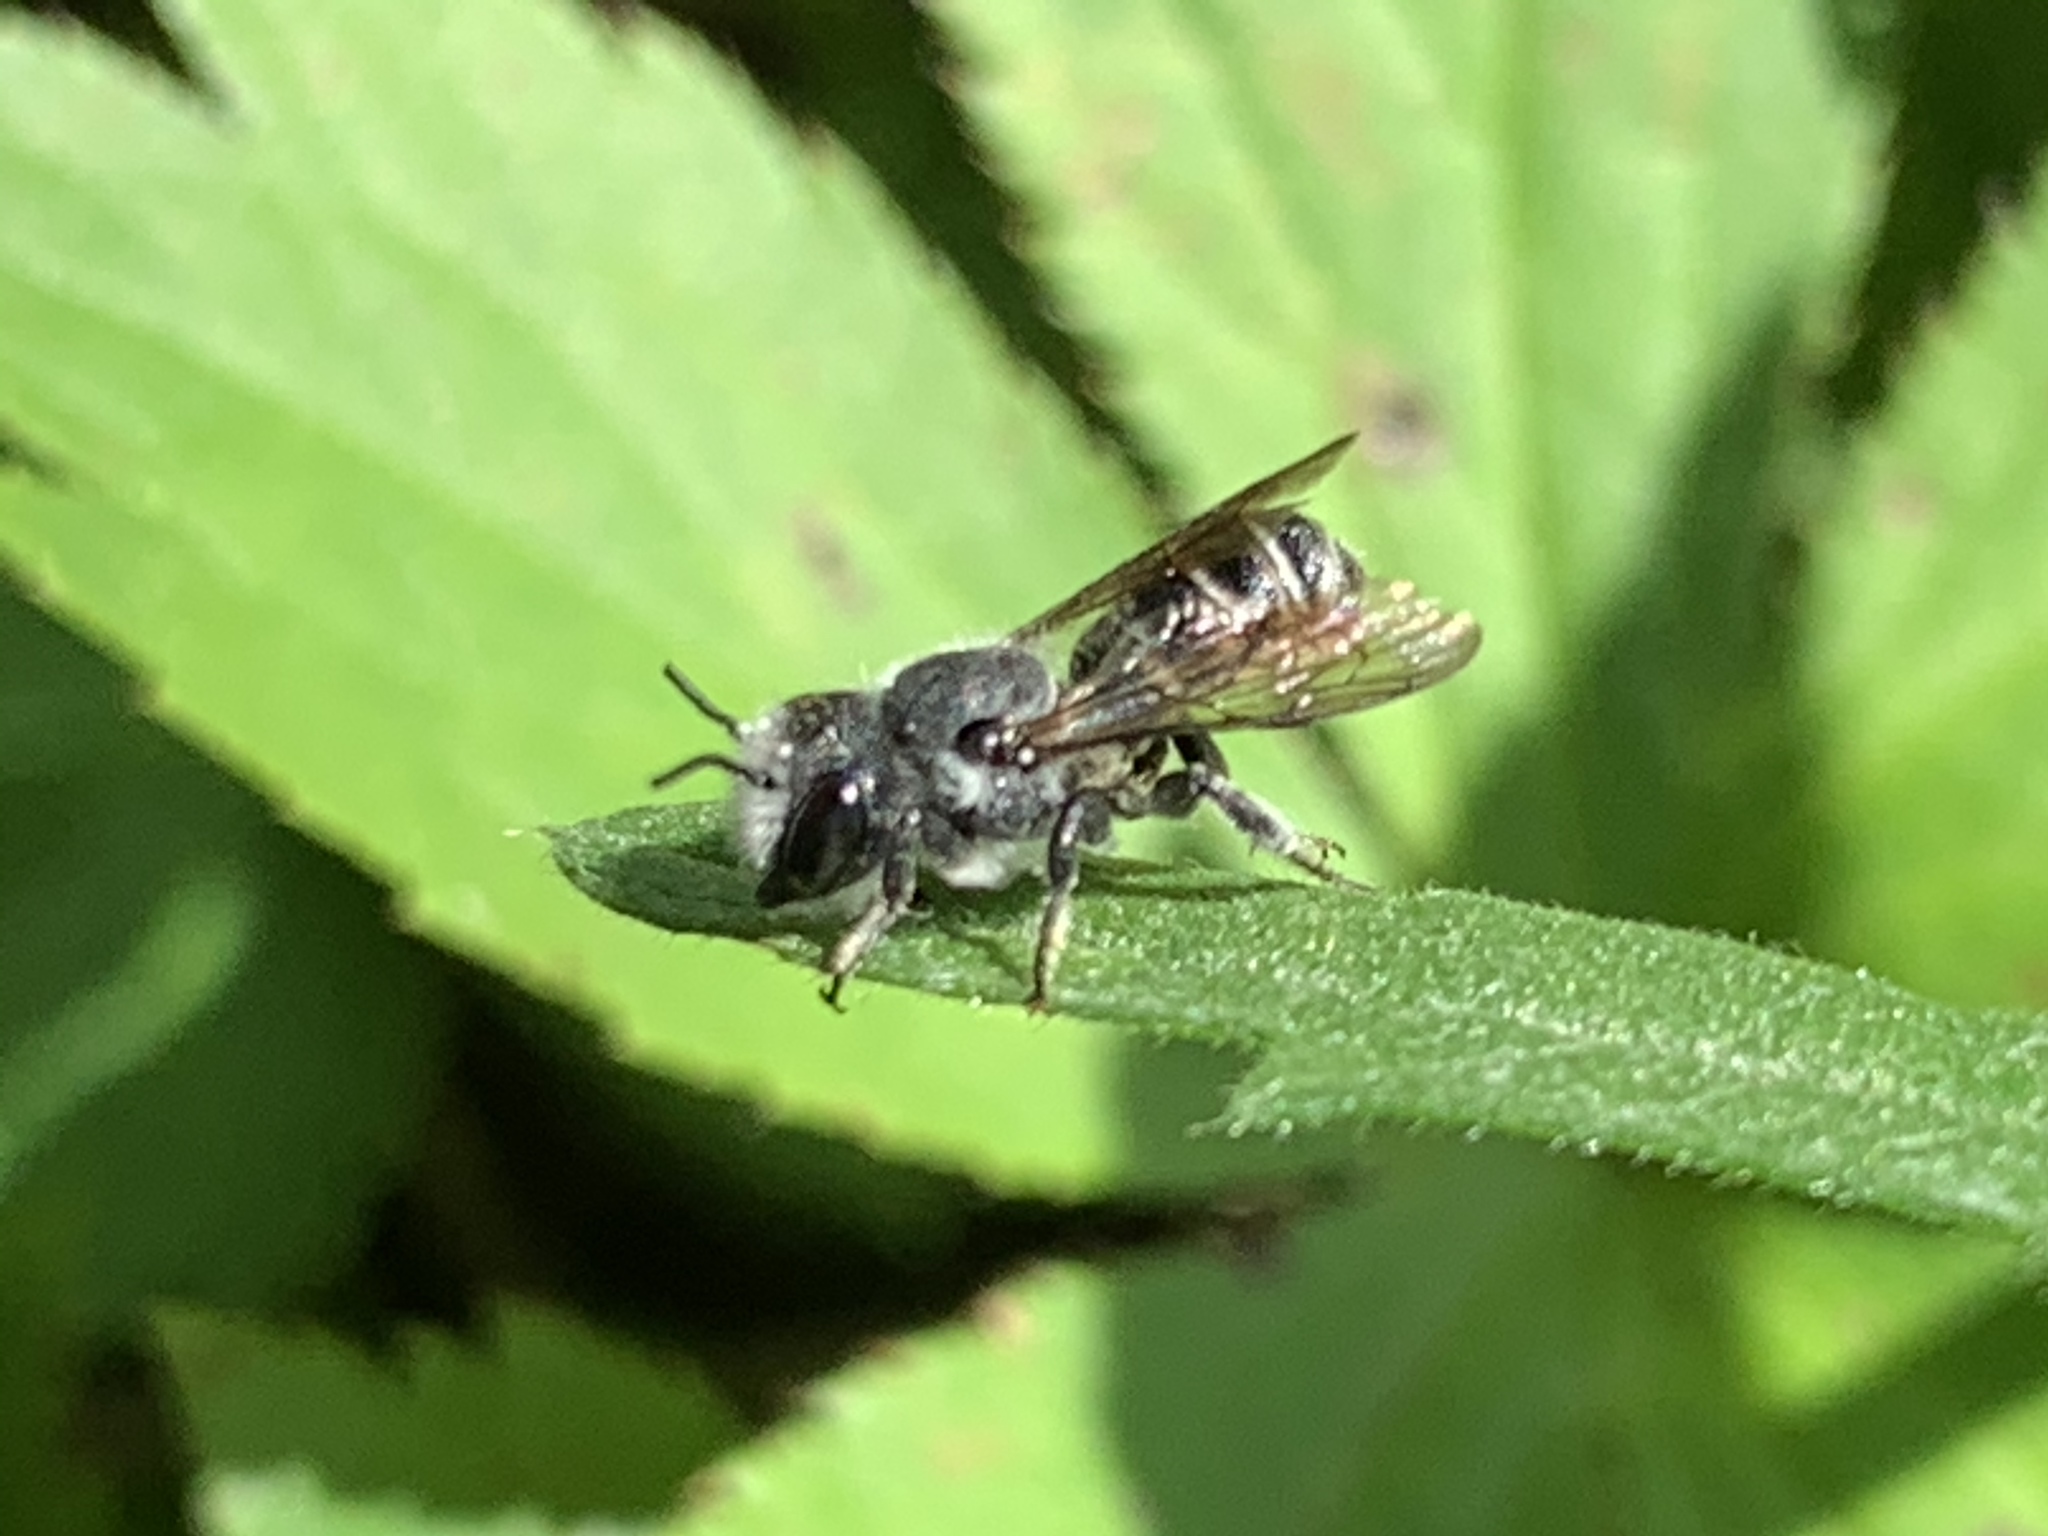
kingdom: Animalia
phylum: Arthropoda
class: Insecta
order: Hymenoptera
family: Megachilidae
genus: Megachile
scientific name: Megachile campanulae
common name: Bellflower resin bee
